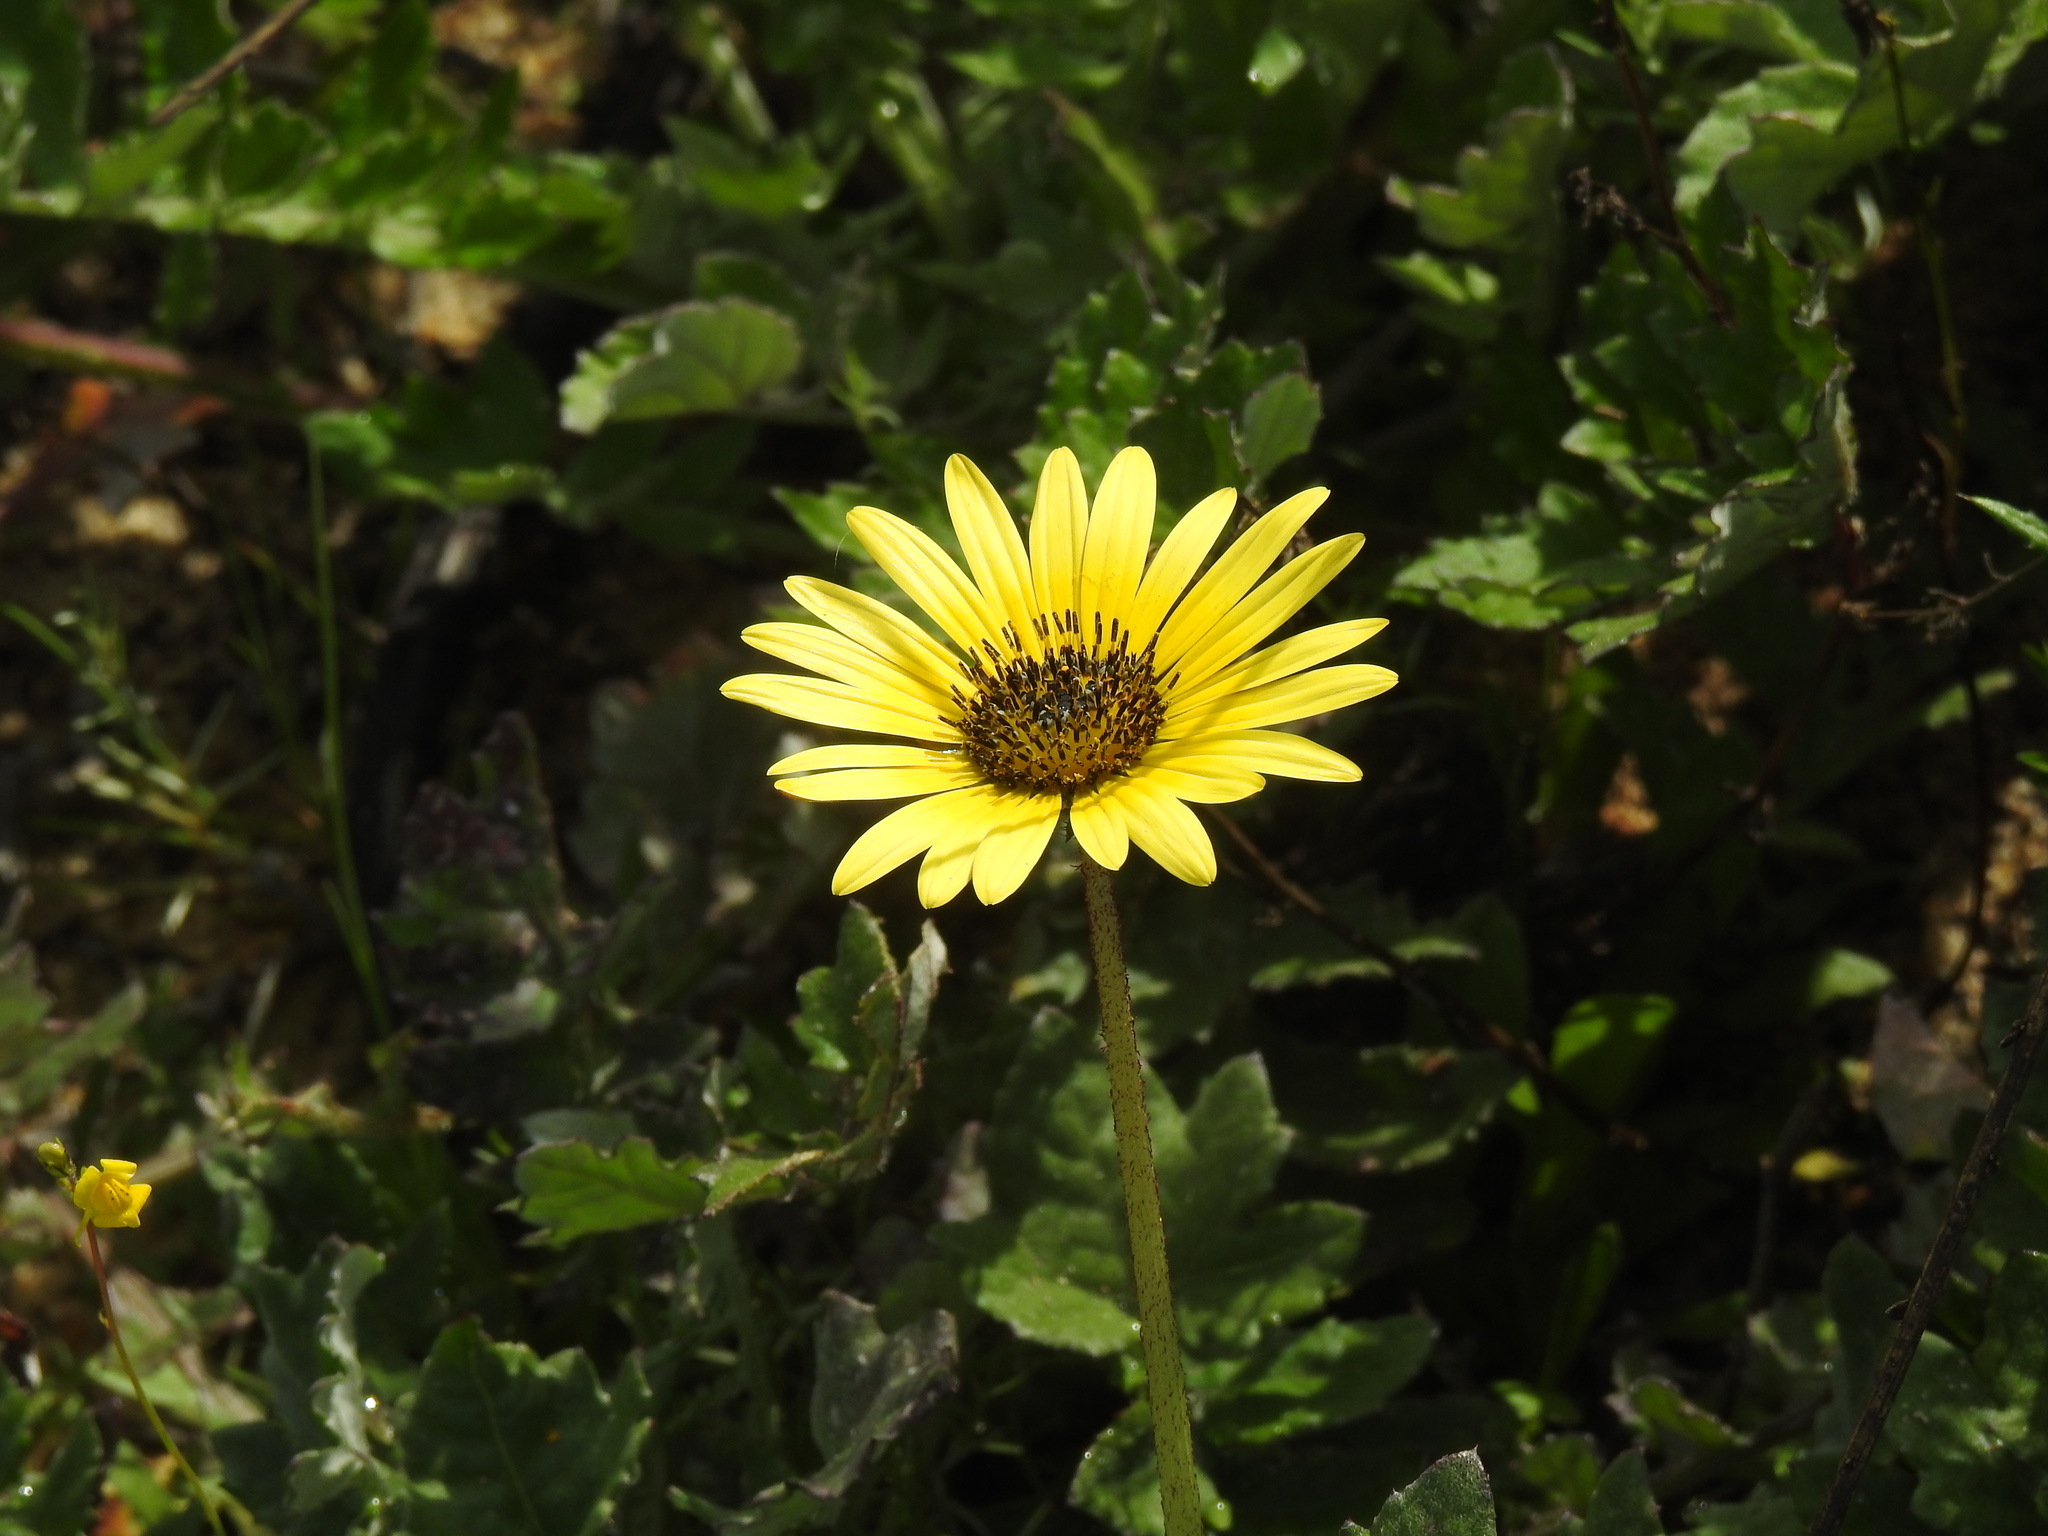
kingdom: Plantae
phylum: Tracheophyta
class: Magnoliopsida
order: Asterales
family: Asteraceae
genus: Arctotheca
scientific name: Arctotheca calendula
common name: Capeweed
